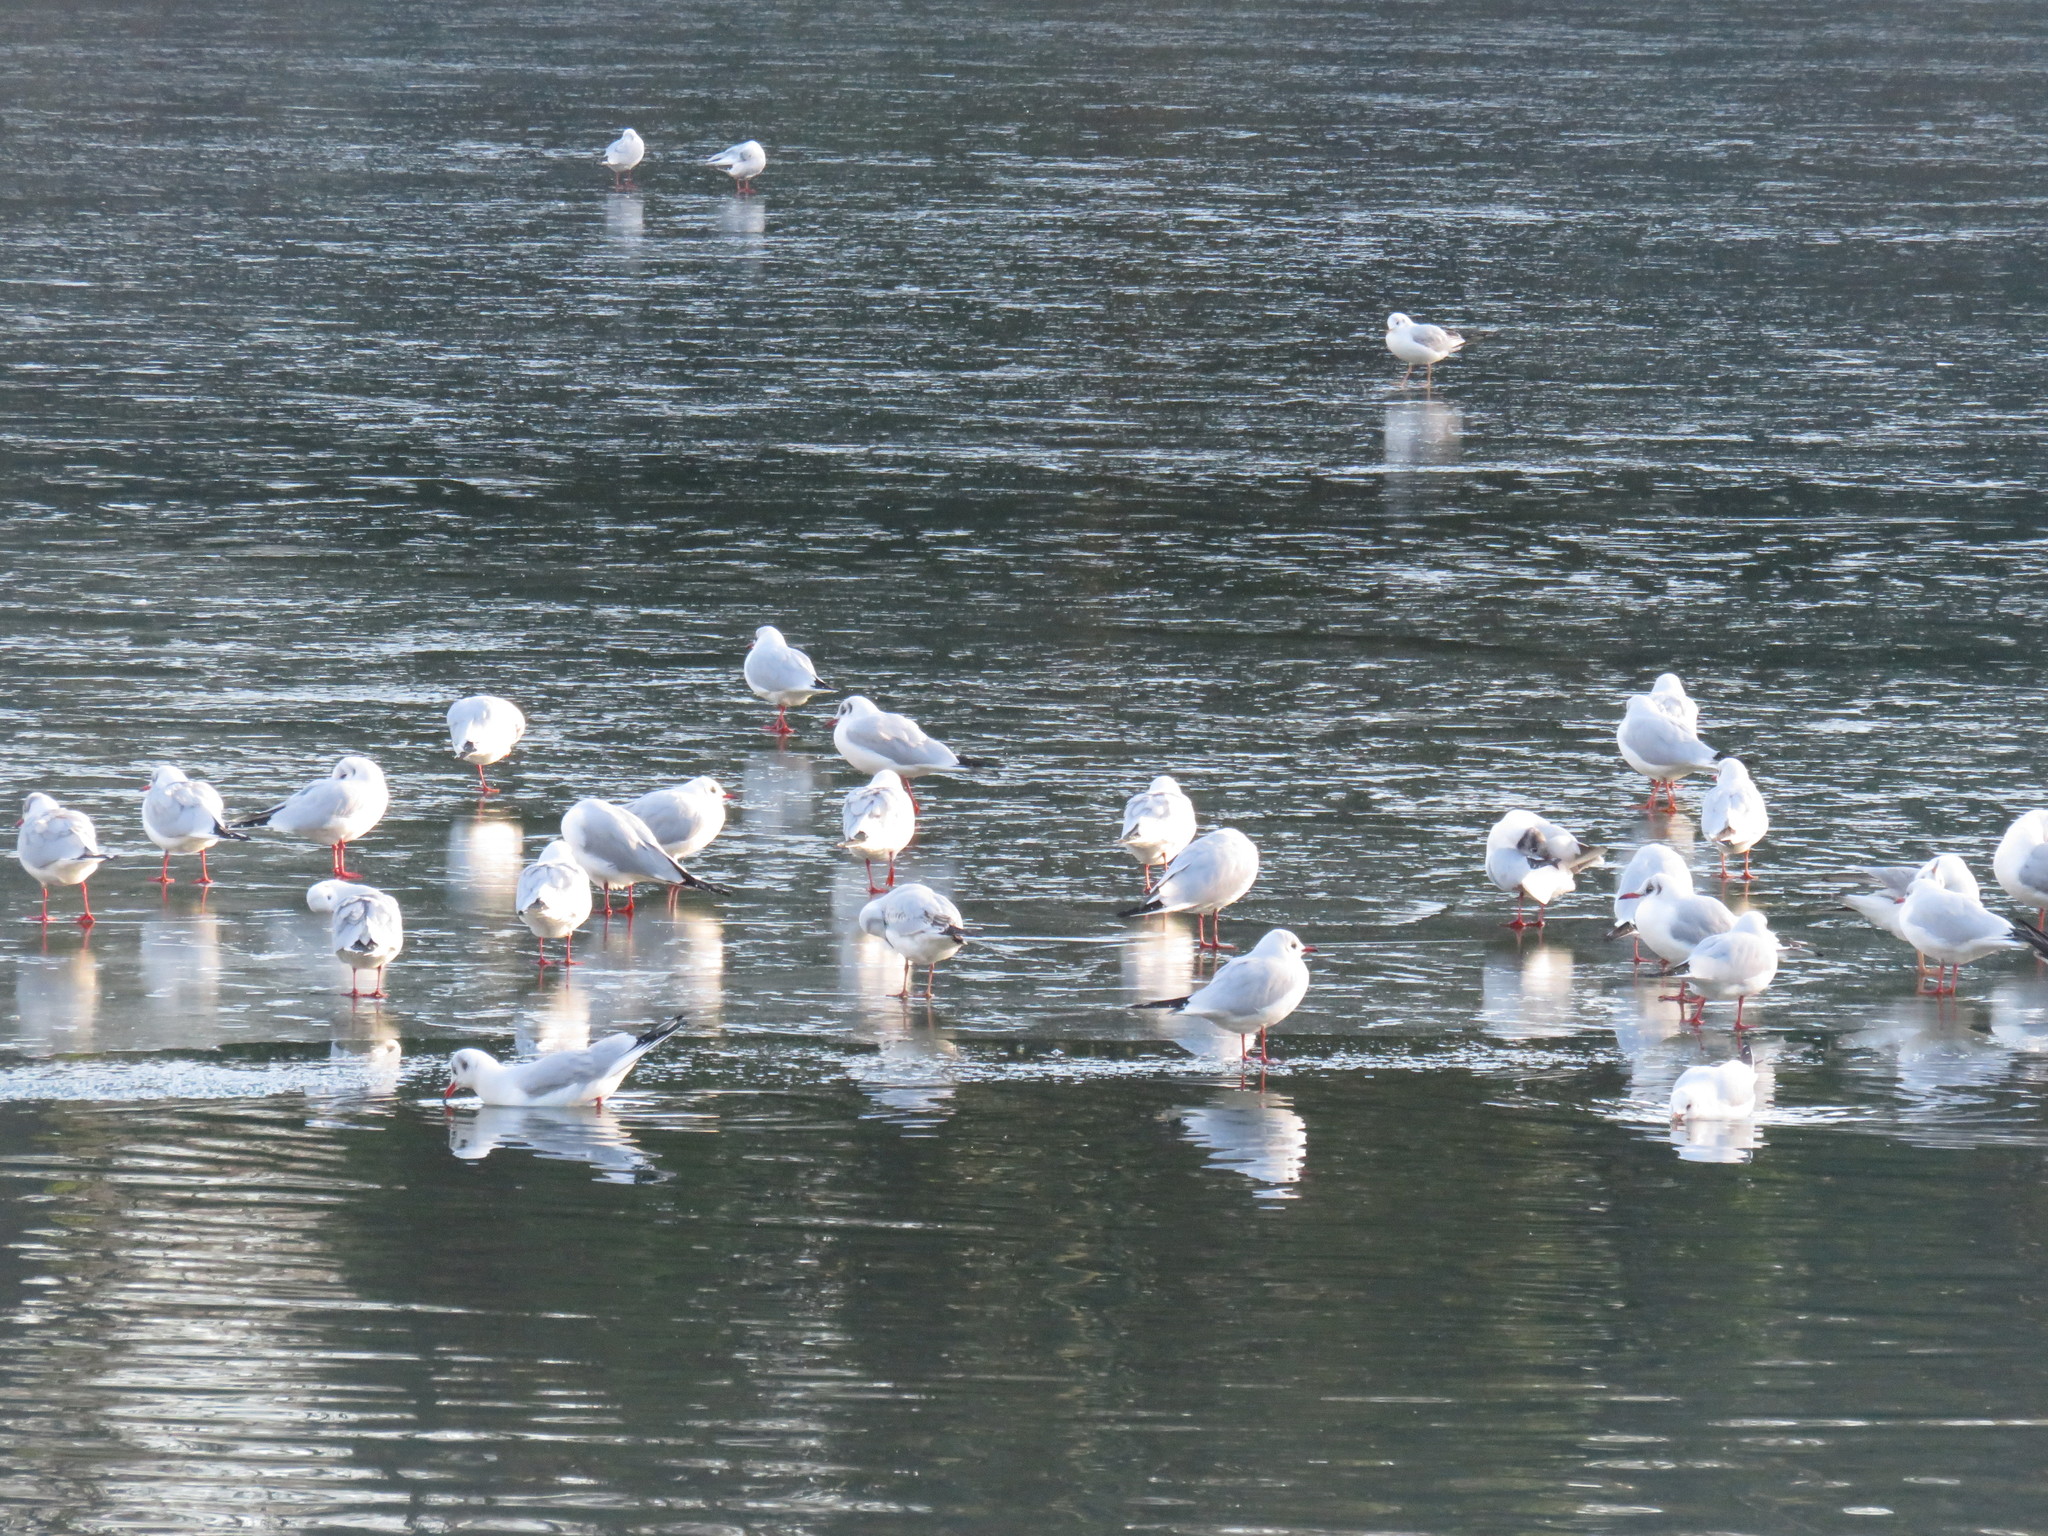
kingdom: Animalia
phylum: Chordata
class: Aves
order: Charadriiformes
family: Laridae
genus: Chroicocephalus
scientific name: Chroicocephalus ridibundus
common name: Black-headed gull
